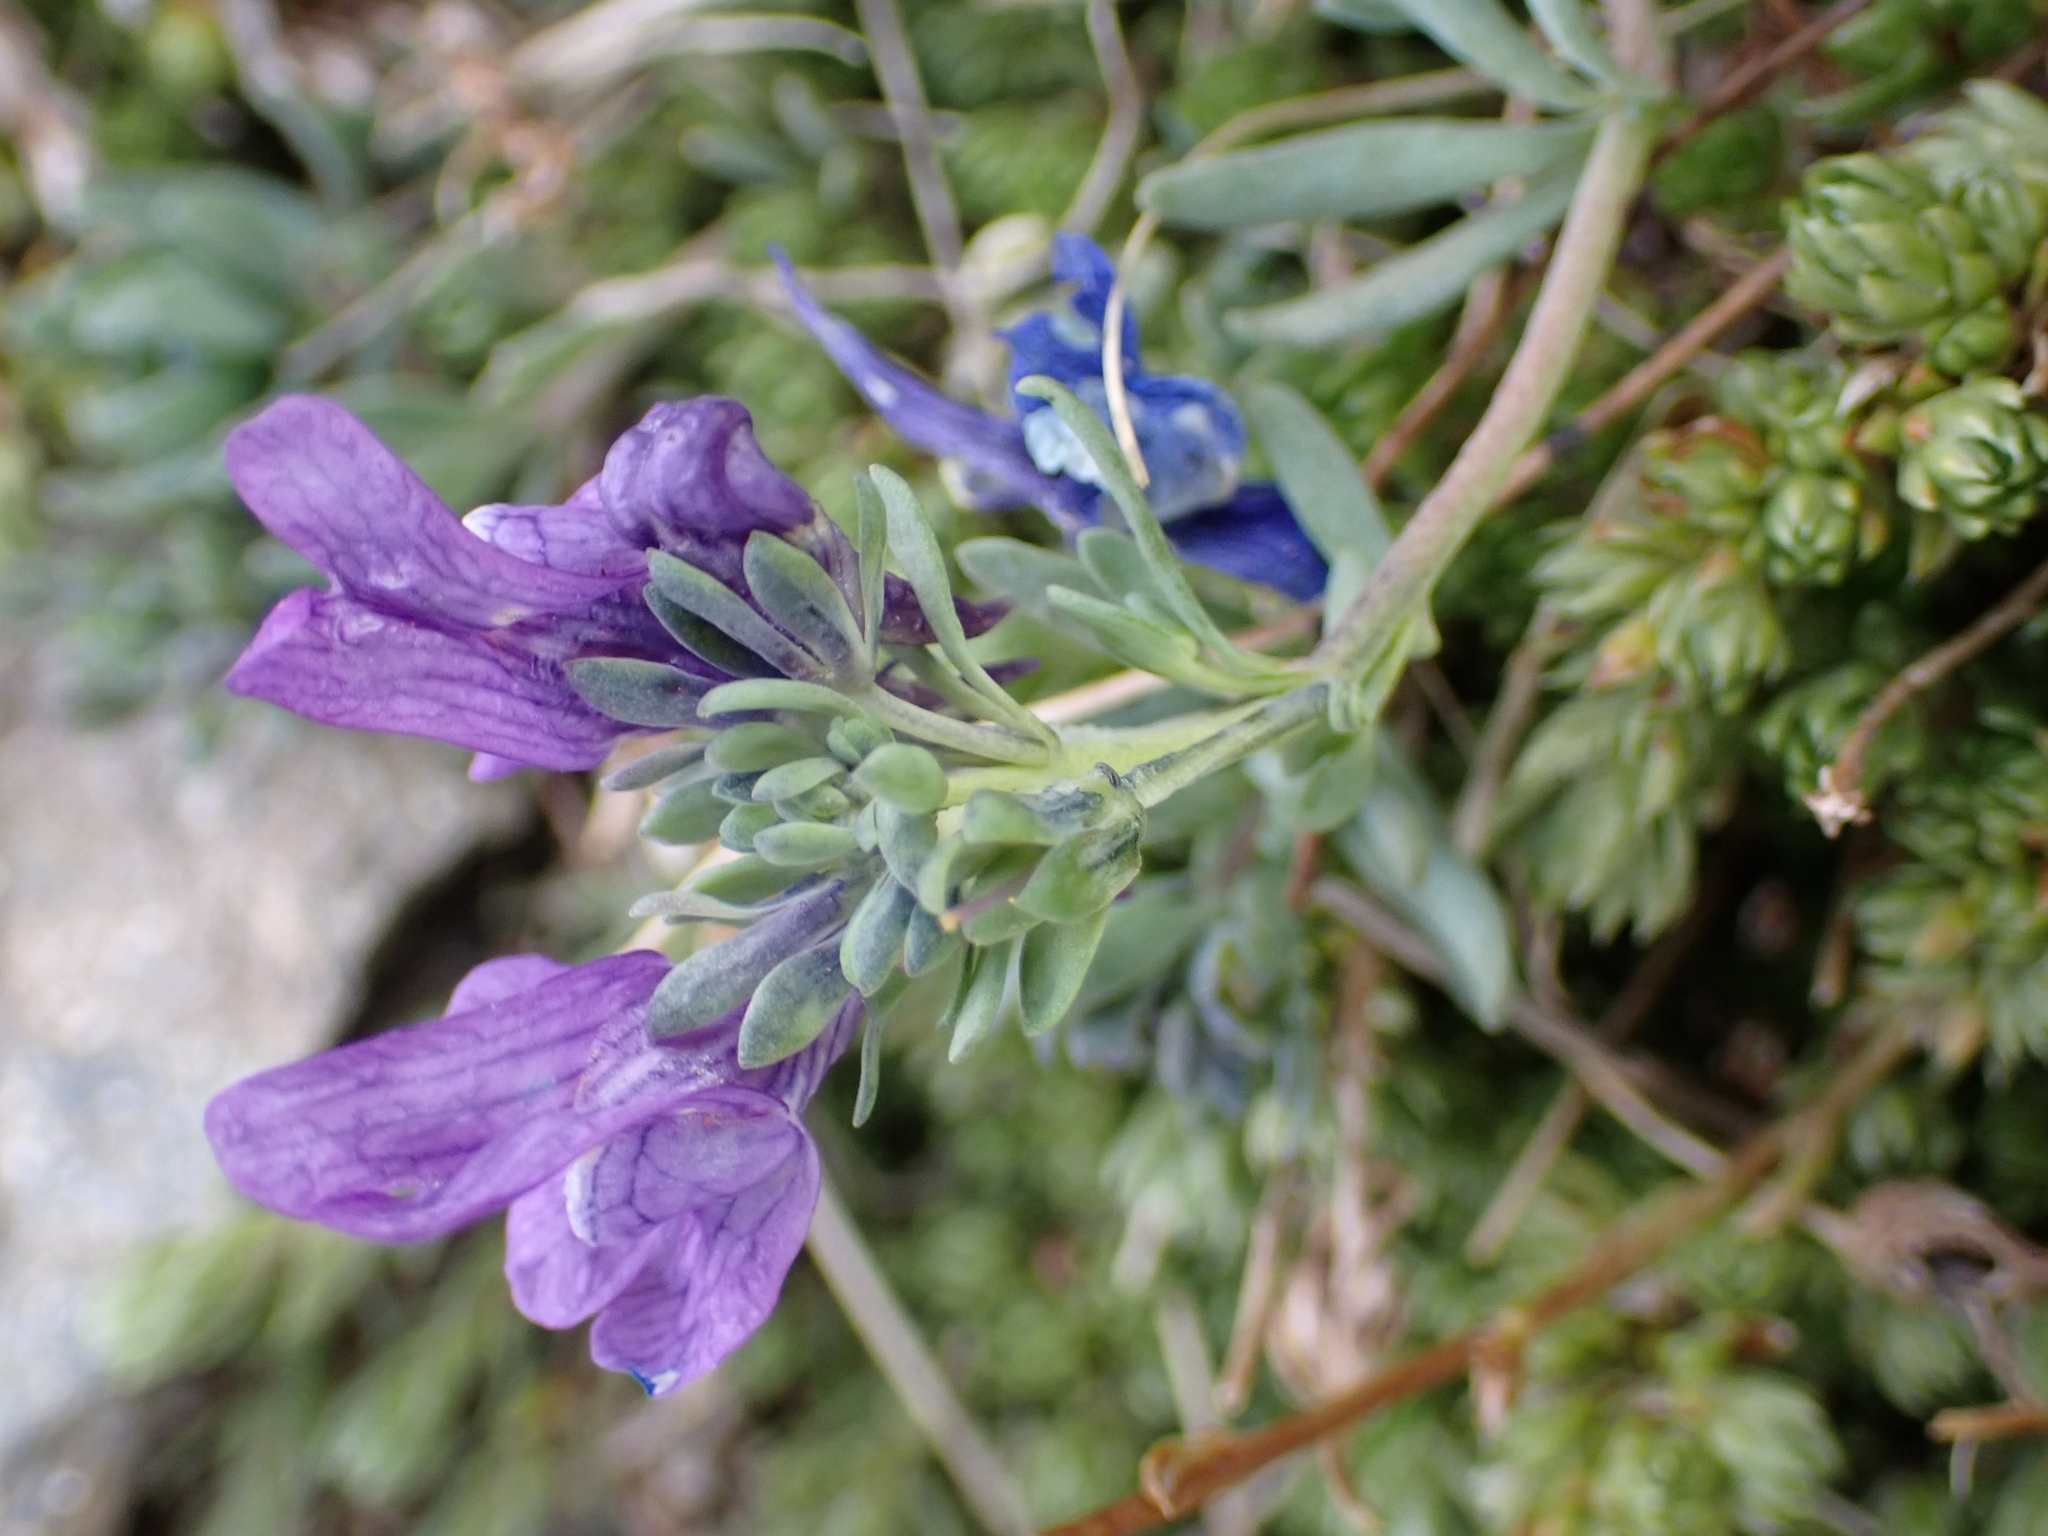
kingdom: Plantae
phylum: Tracheophyta
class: Magnoliopsida
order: Lamiales
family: Plantaginaceae
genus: Linaria
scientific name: Linaria alpina
